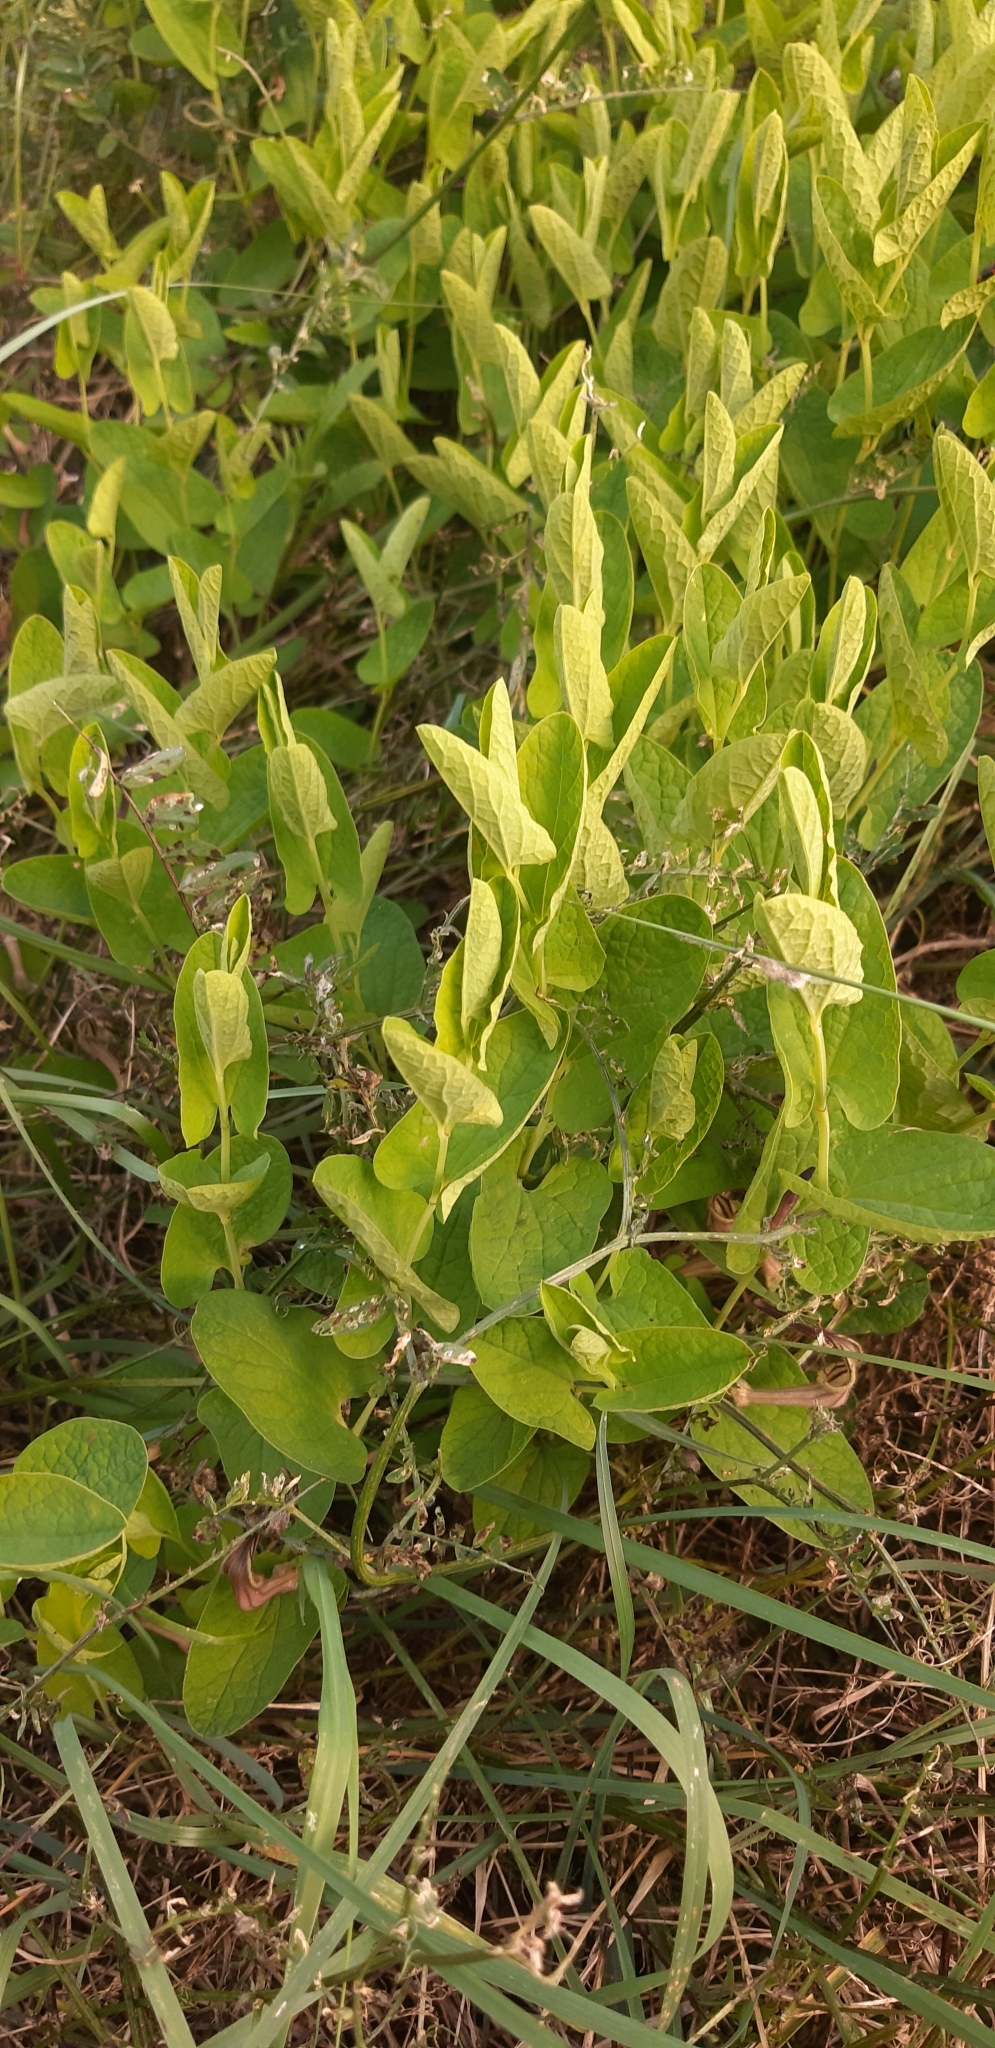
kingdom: Plantae
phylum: Tracheophyta
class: Magnoliopsida
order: Piperales
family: Aristolochiaceae
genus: Aristolochia
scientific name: Aristolochia clusii
